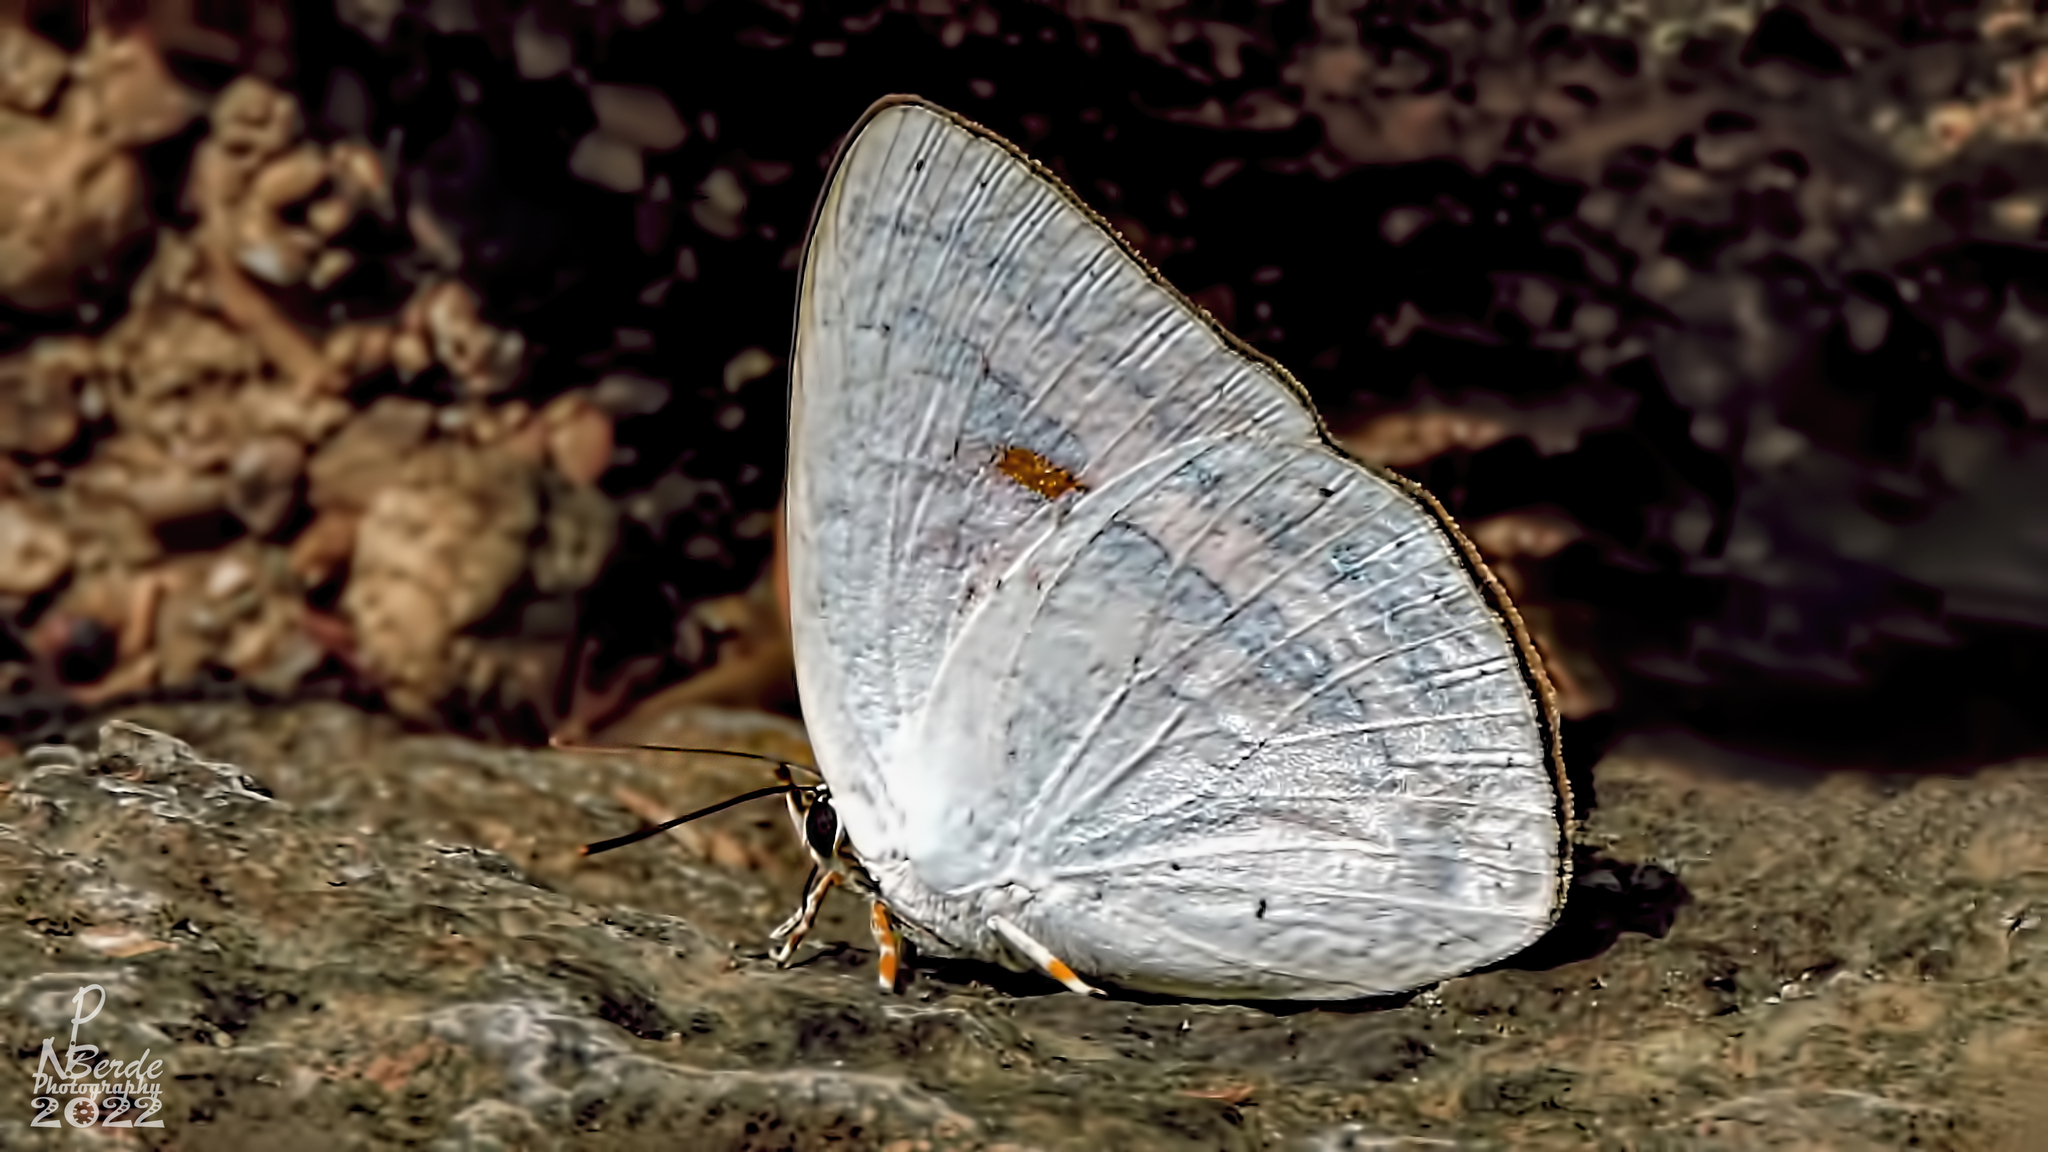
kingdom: Animalia
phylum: Arthropoda
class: Insecta
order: Lepidoptera
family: Lycaenidae
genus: Curetis
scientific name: Curetis thetis
